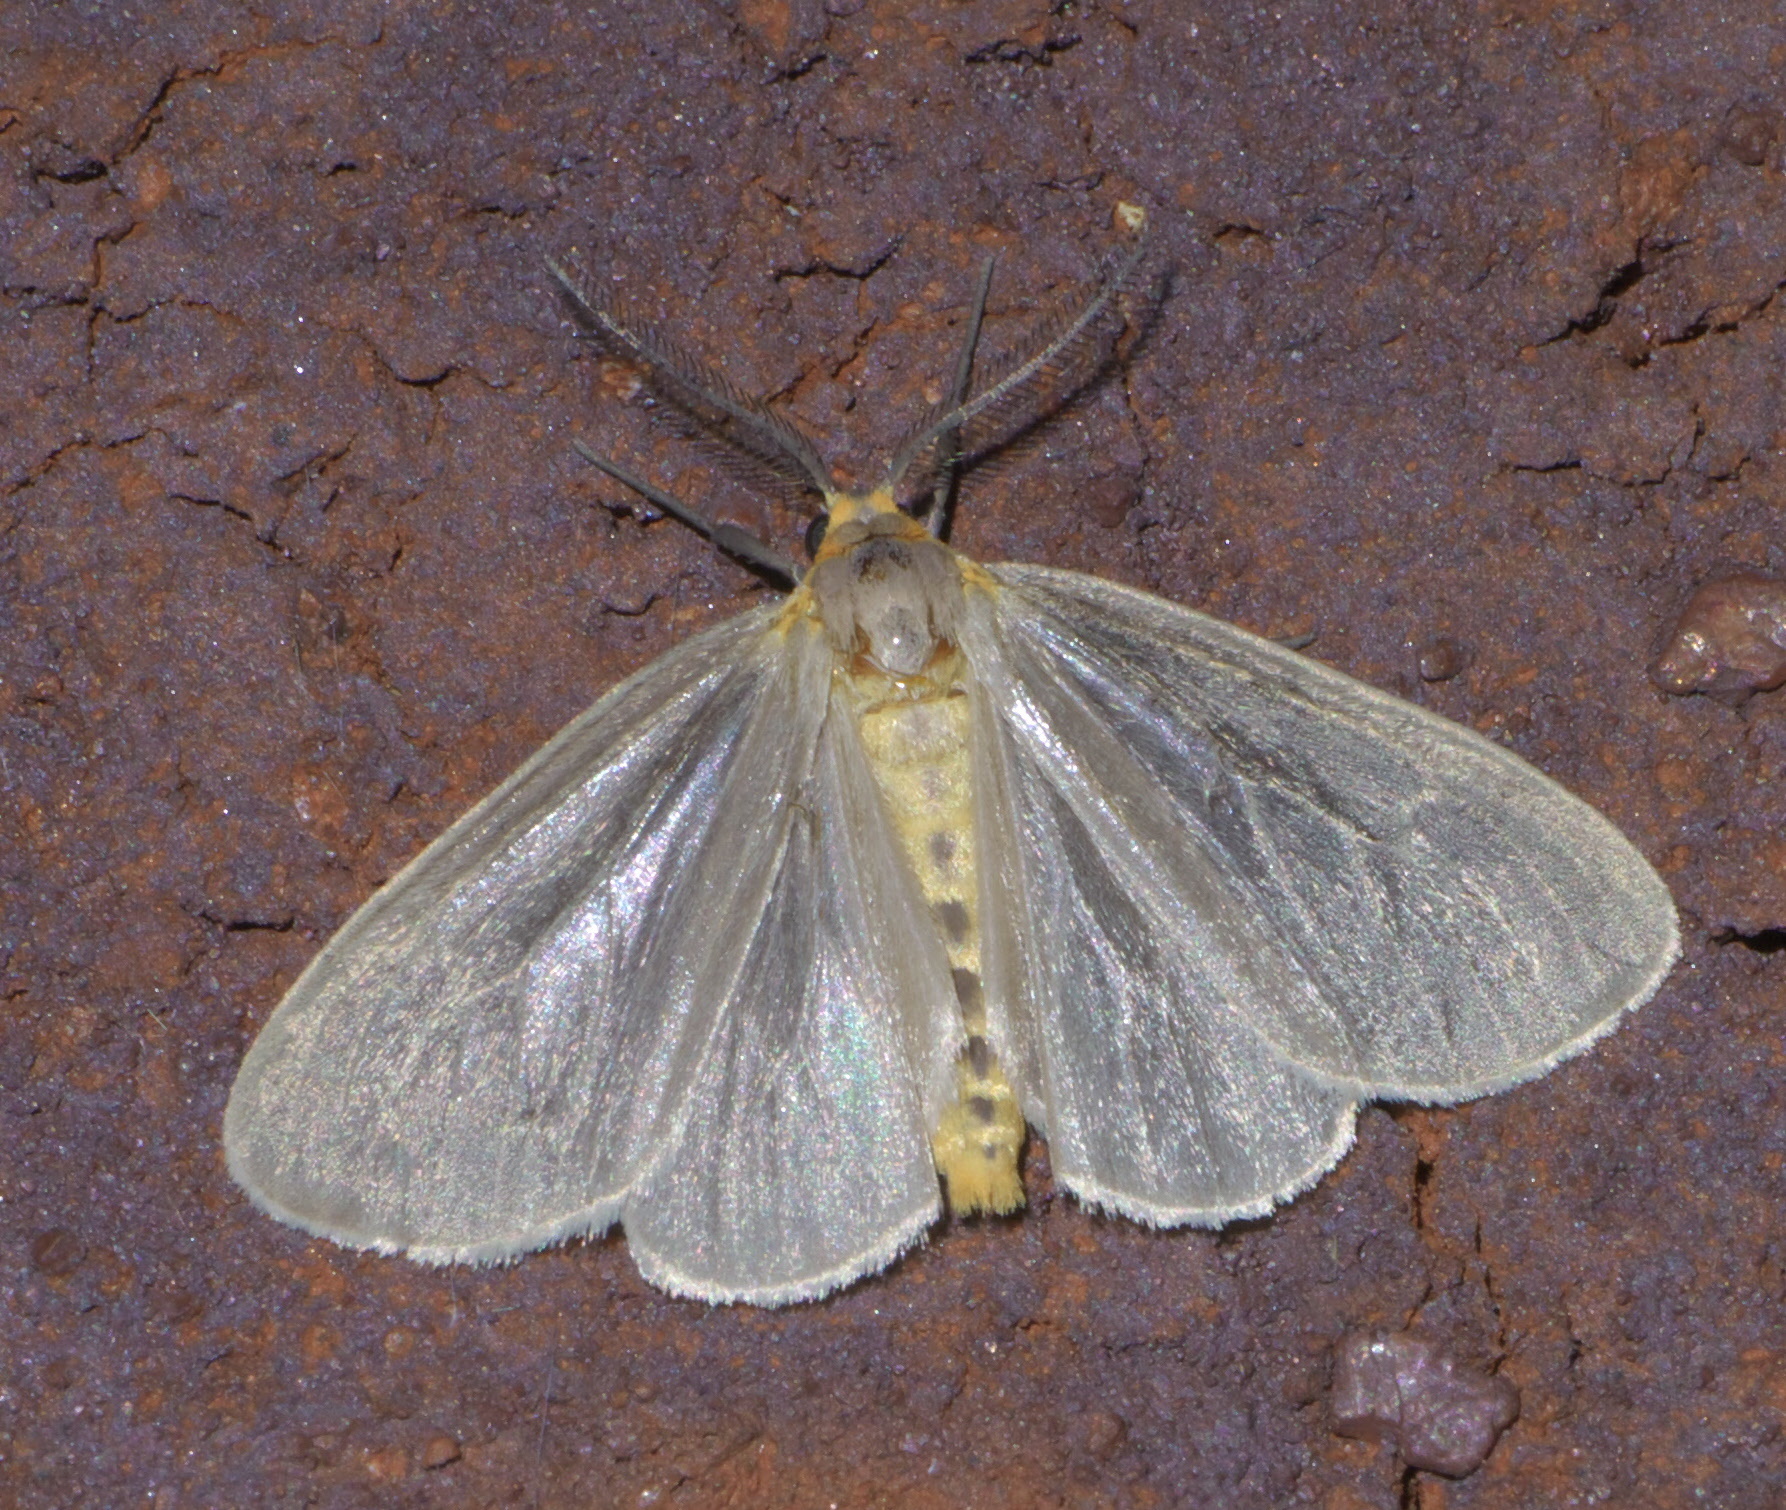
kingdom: Animalia
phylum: Arthropoda
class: Insecta
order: Lepidoptera
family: Erebidae
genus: Pagara
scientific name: Pagara simplex
